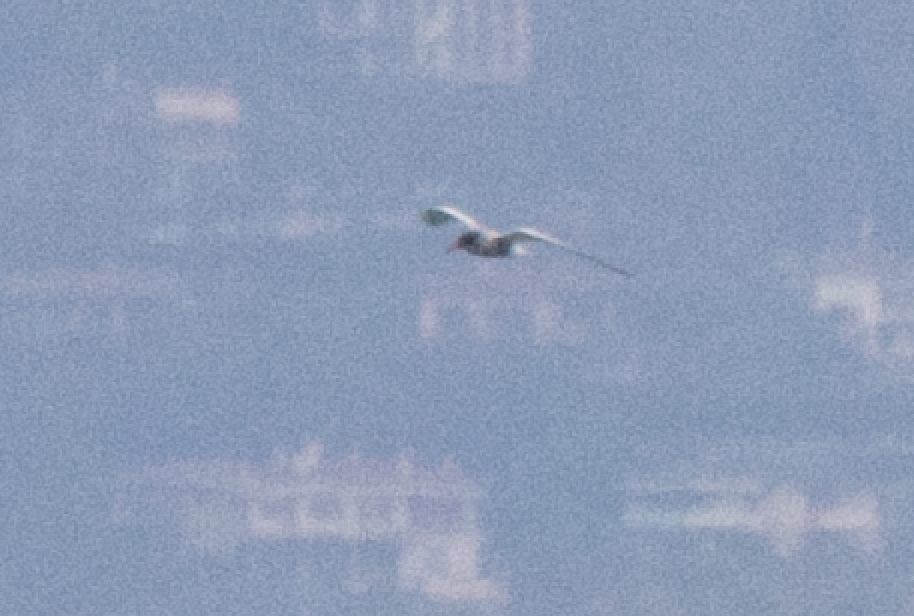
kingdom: Animalia
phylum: Chordata
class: Aves
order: Charadriiformes
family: Laridae
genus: Chlidonias
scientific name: Chlidonias hybrida
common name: Whiskered tern
